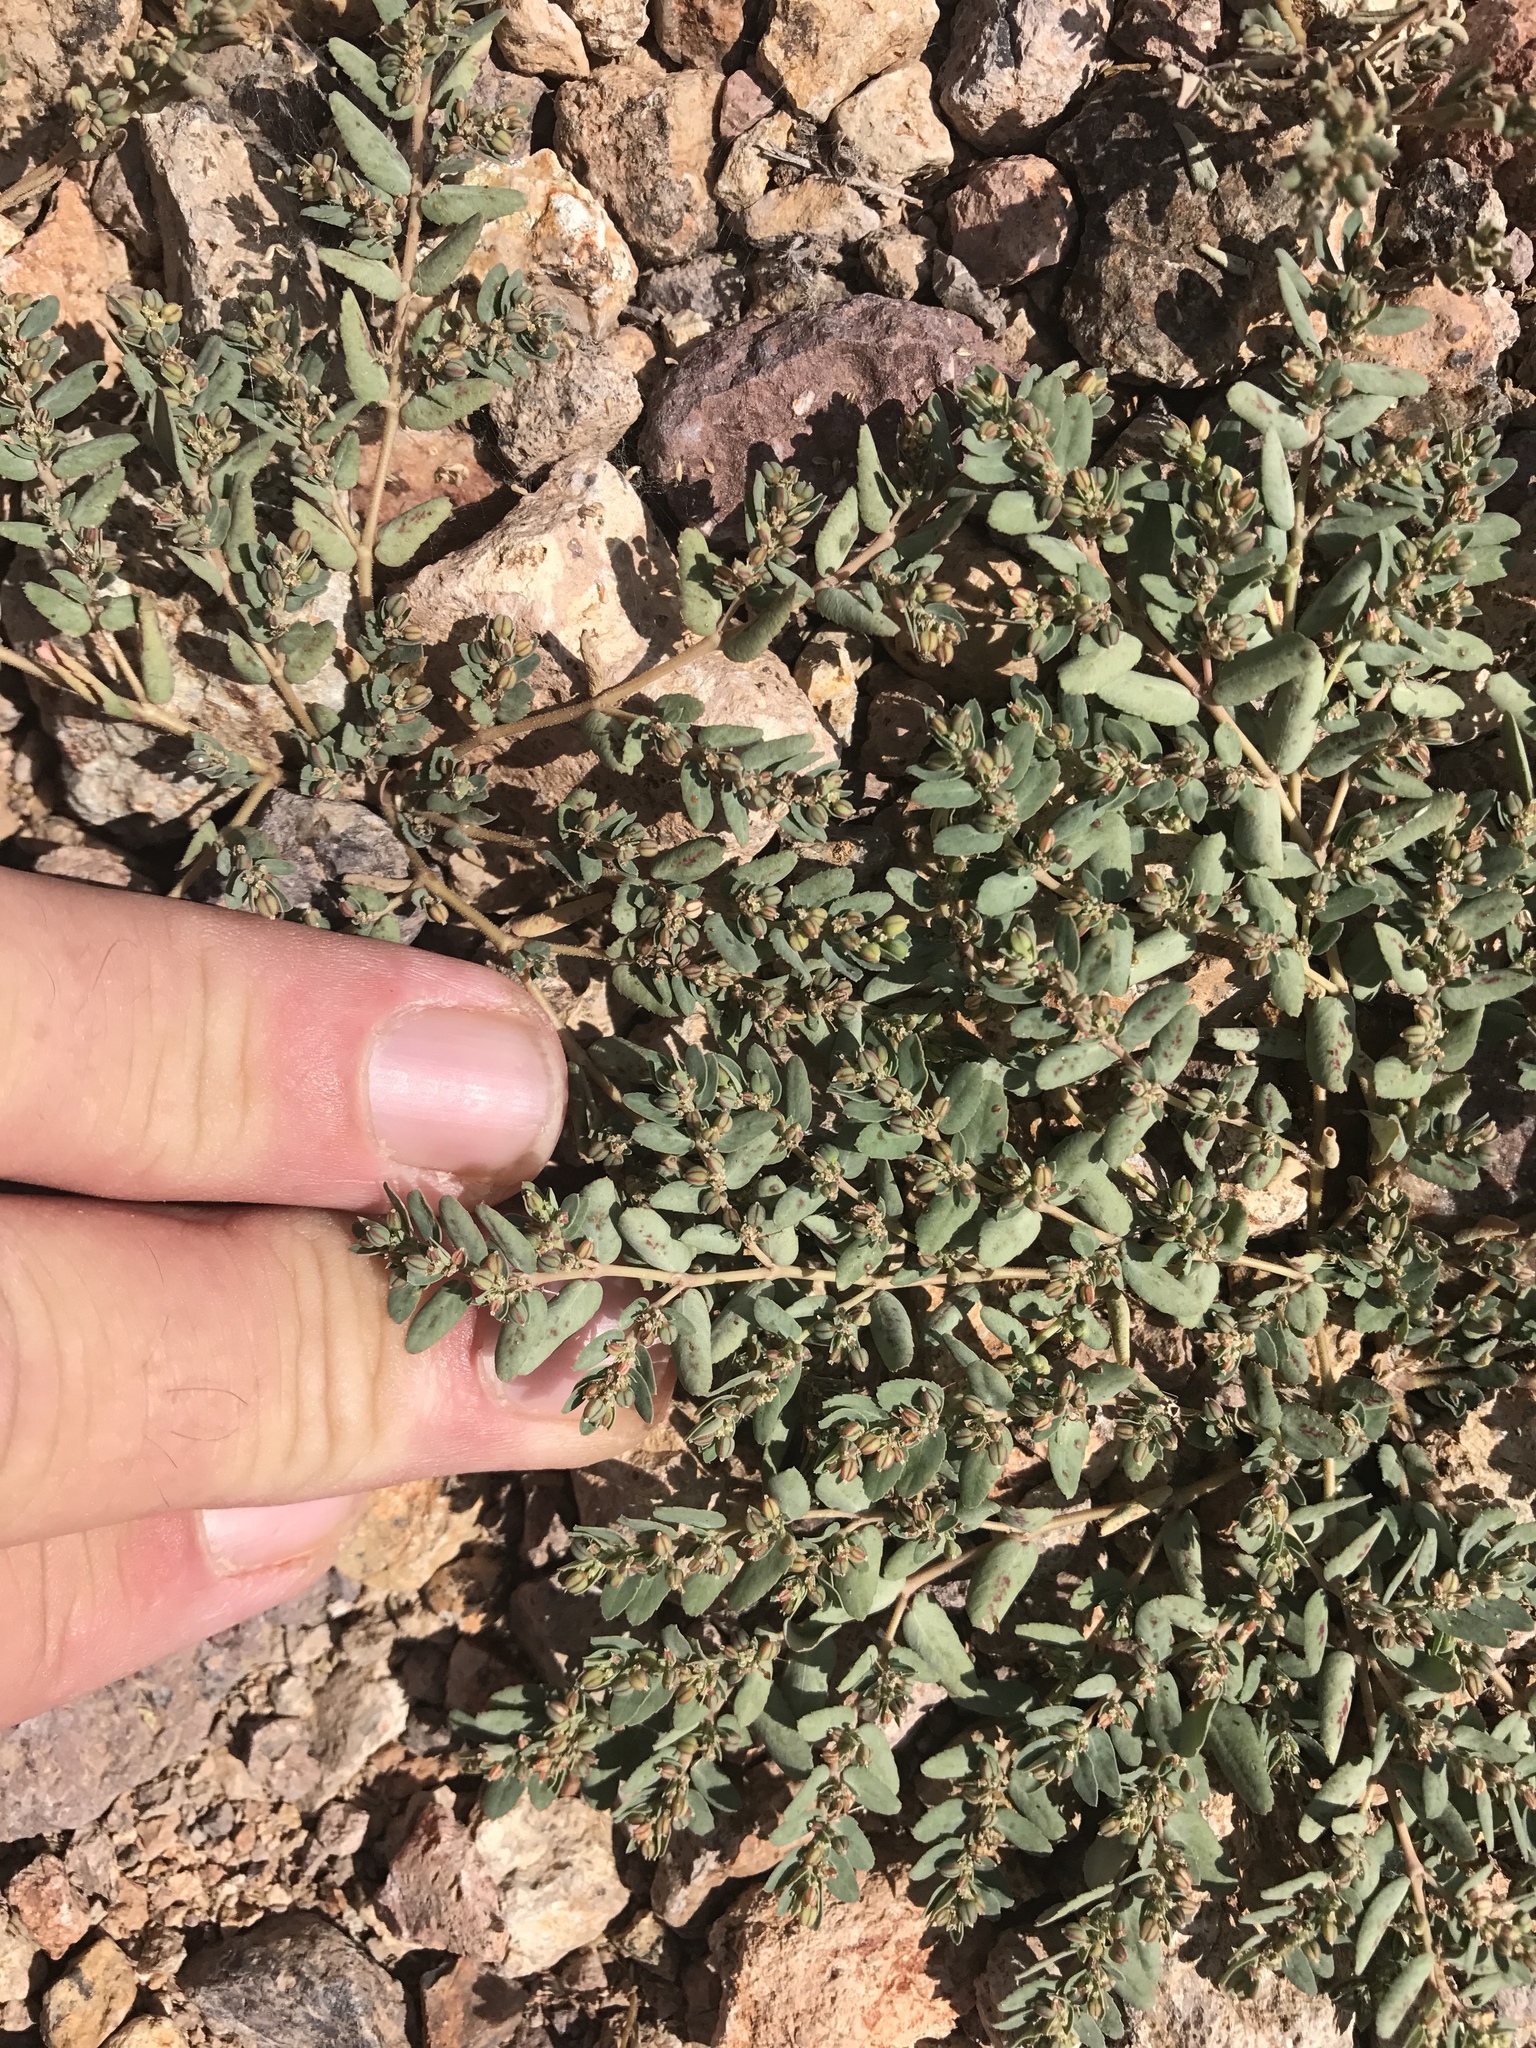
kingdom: Plantae
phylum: Tracheophyta
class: Magnoliopsida
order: Malpighiales
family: Euphorbiaceae
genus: Euphorbia
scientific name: Euphorbia abramsiana
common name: Abram's spurge
